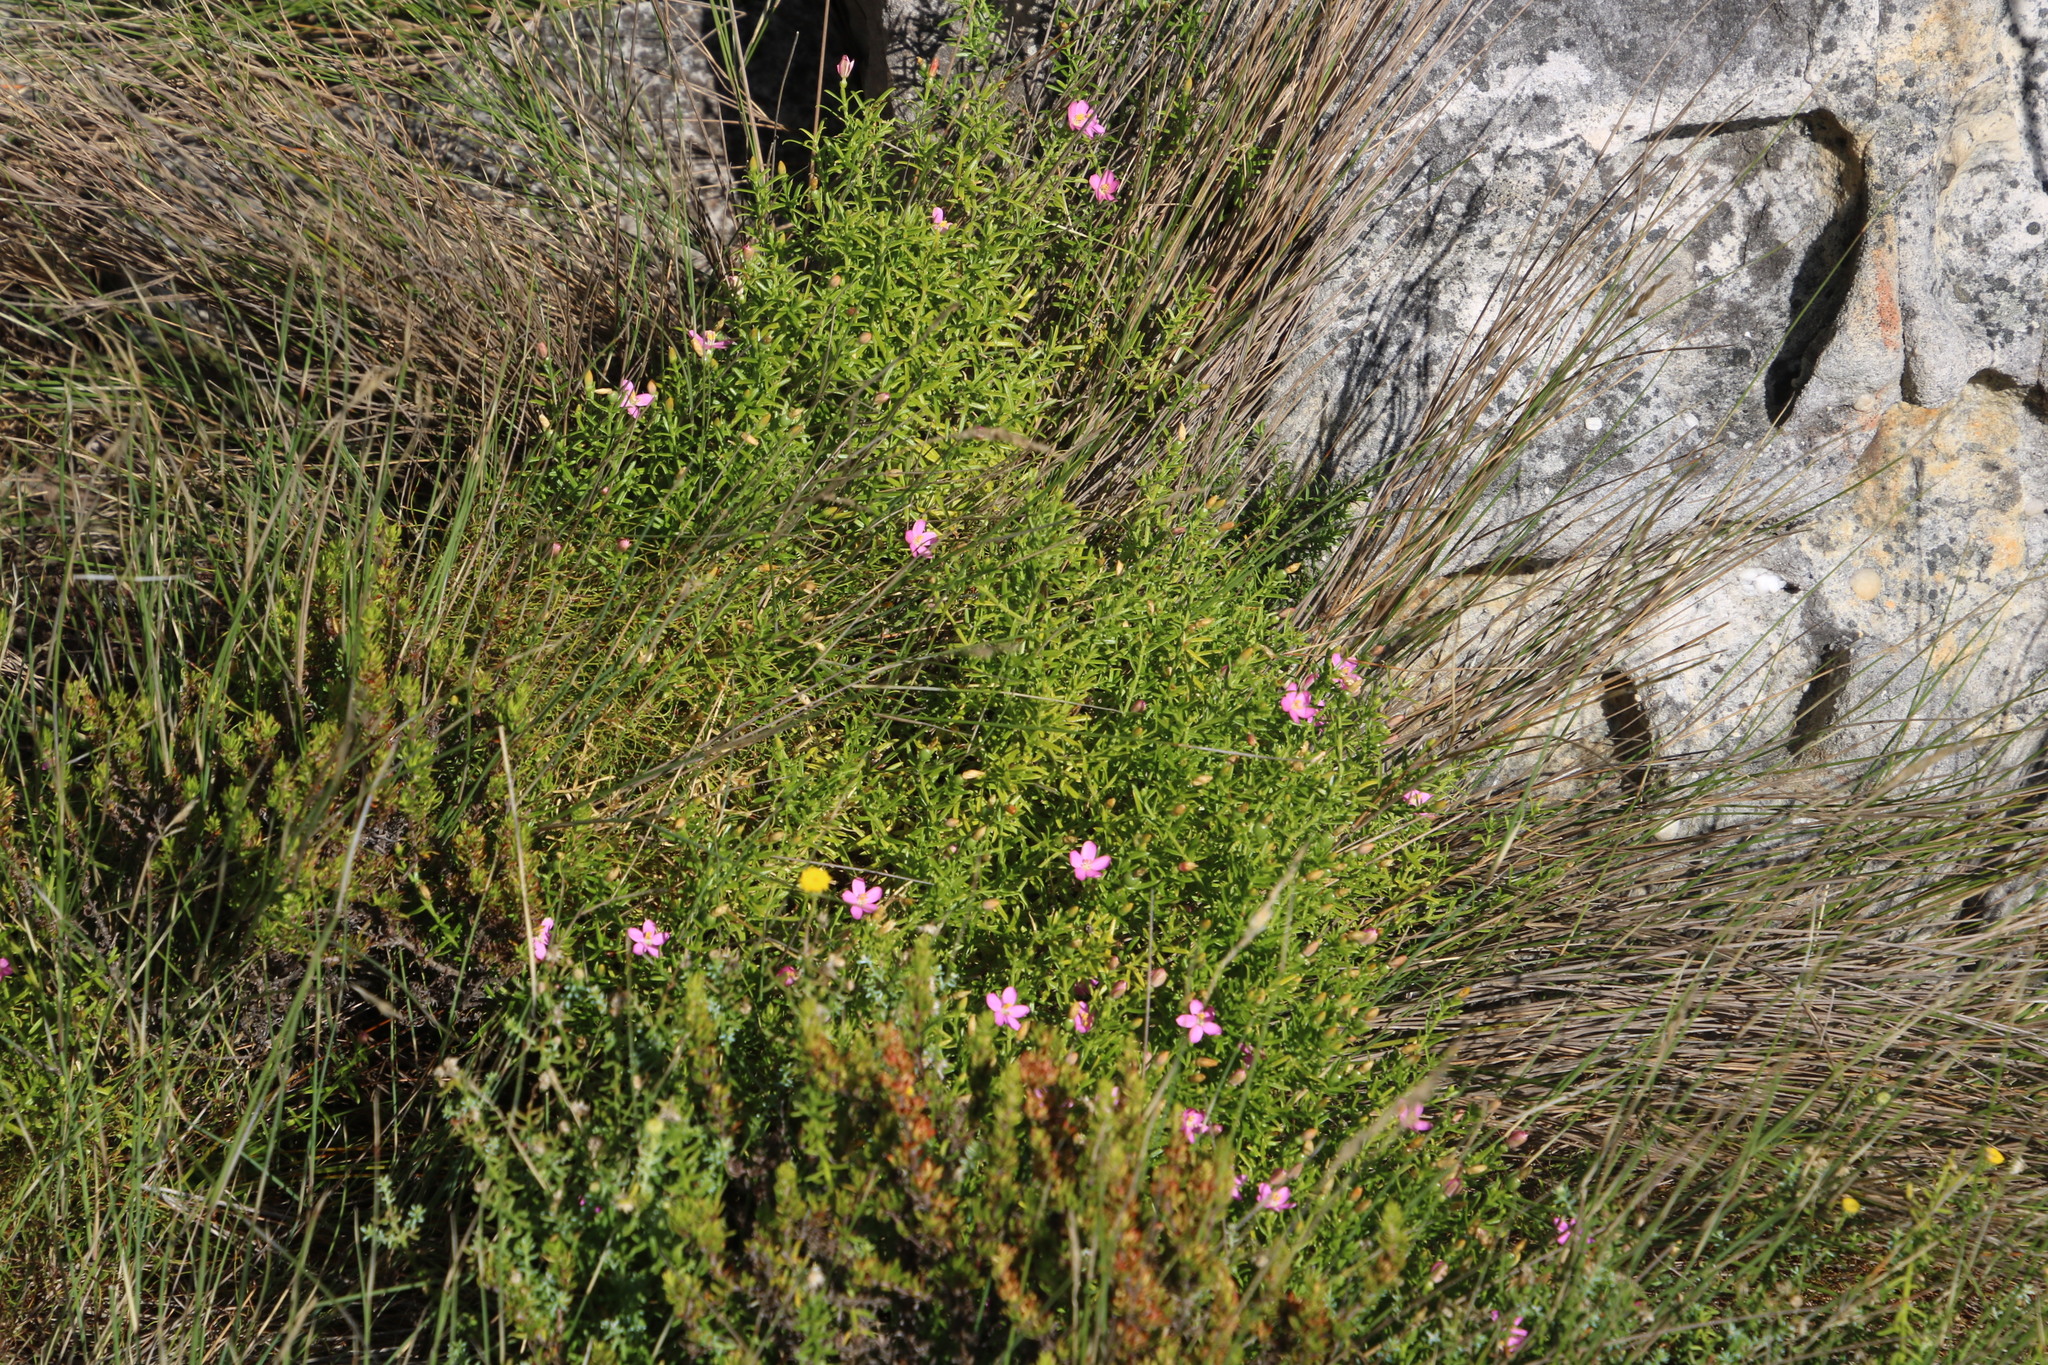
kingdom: Plantae
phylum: Tracheophyta
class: Magnoliopsida
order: Gentianales
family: Gentianaceae
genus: Chironia
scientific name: Chironia baccifera
